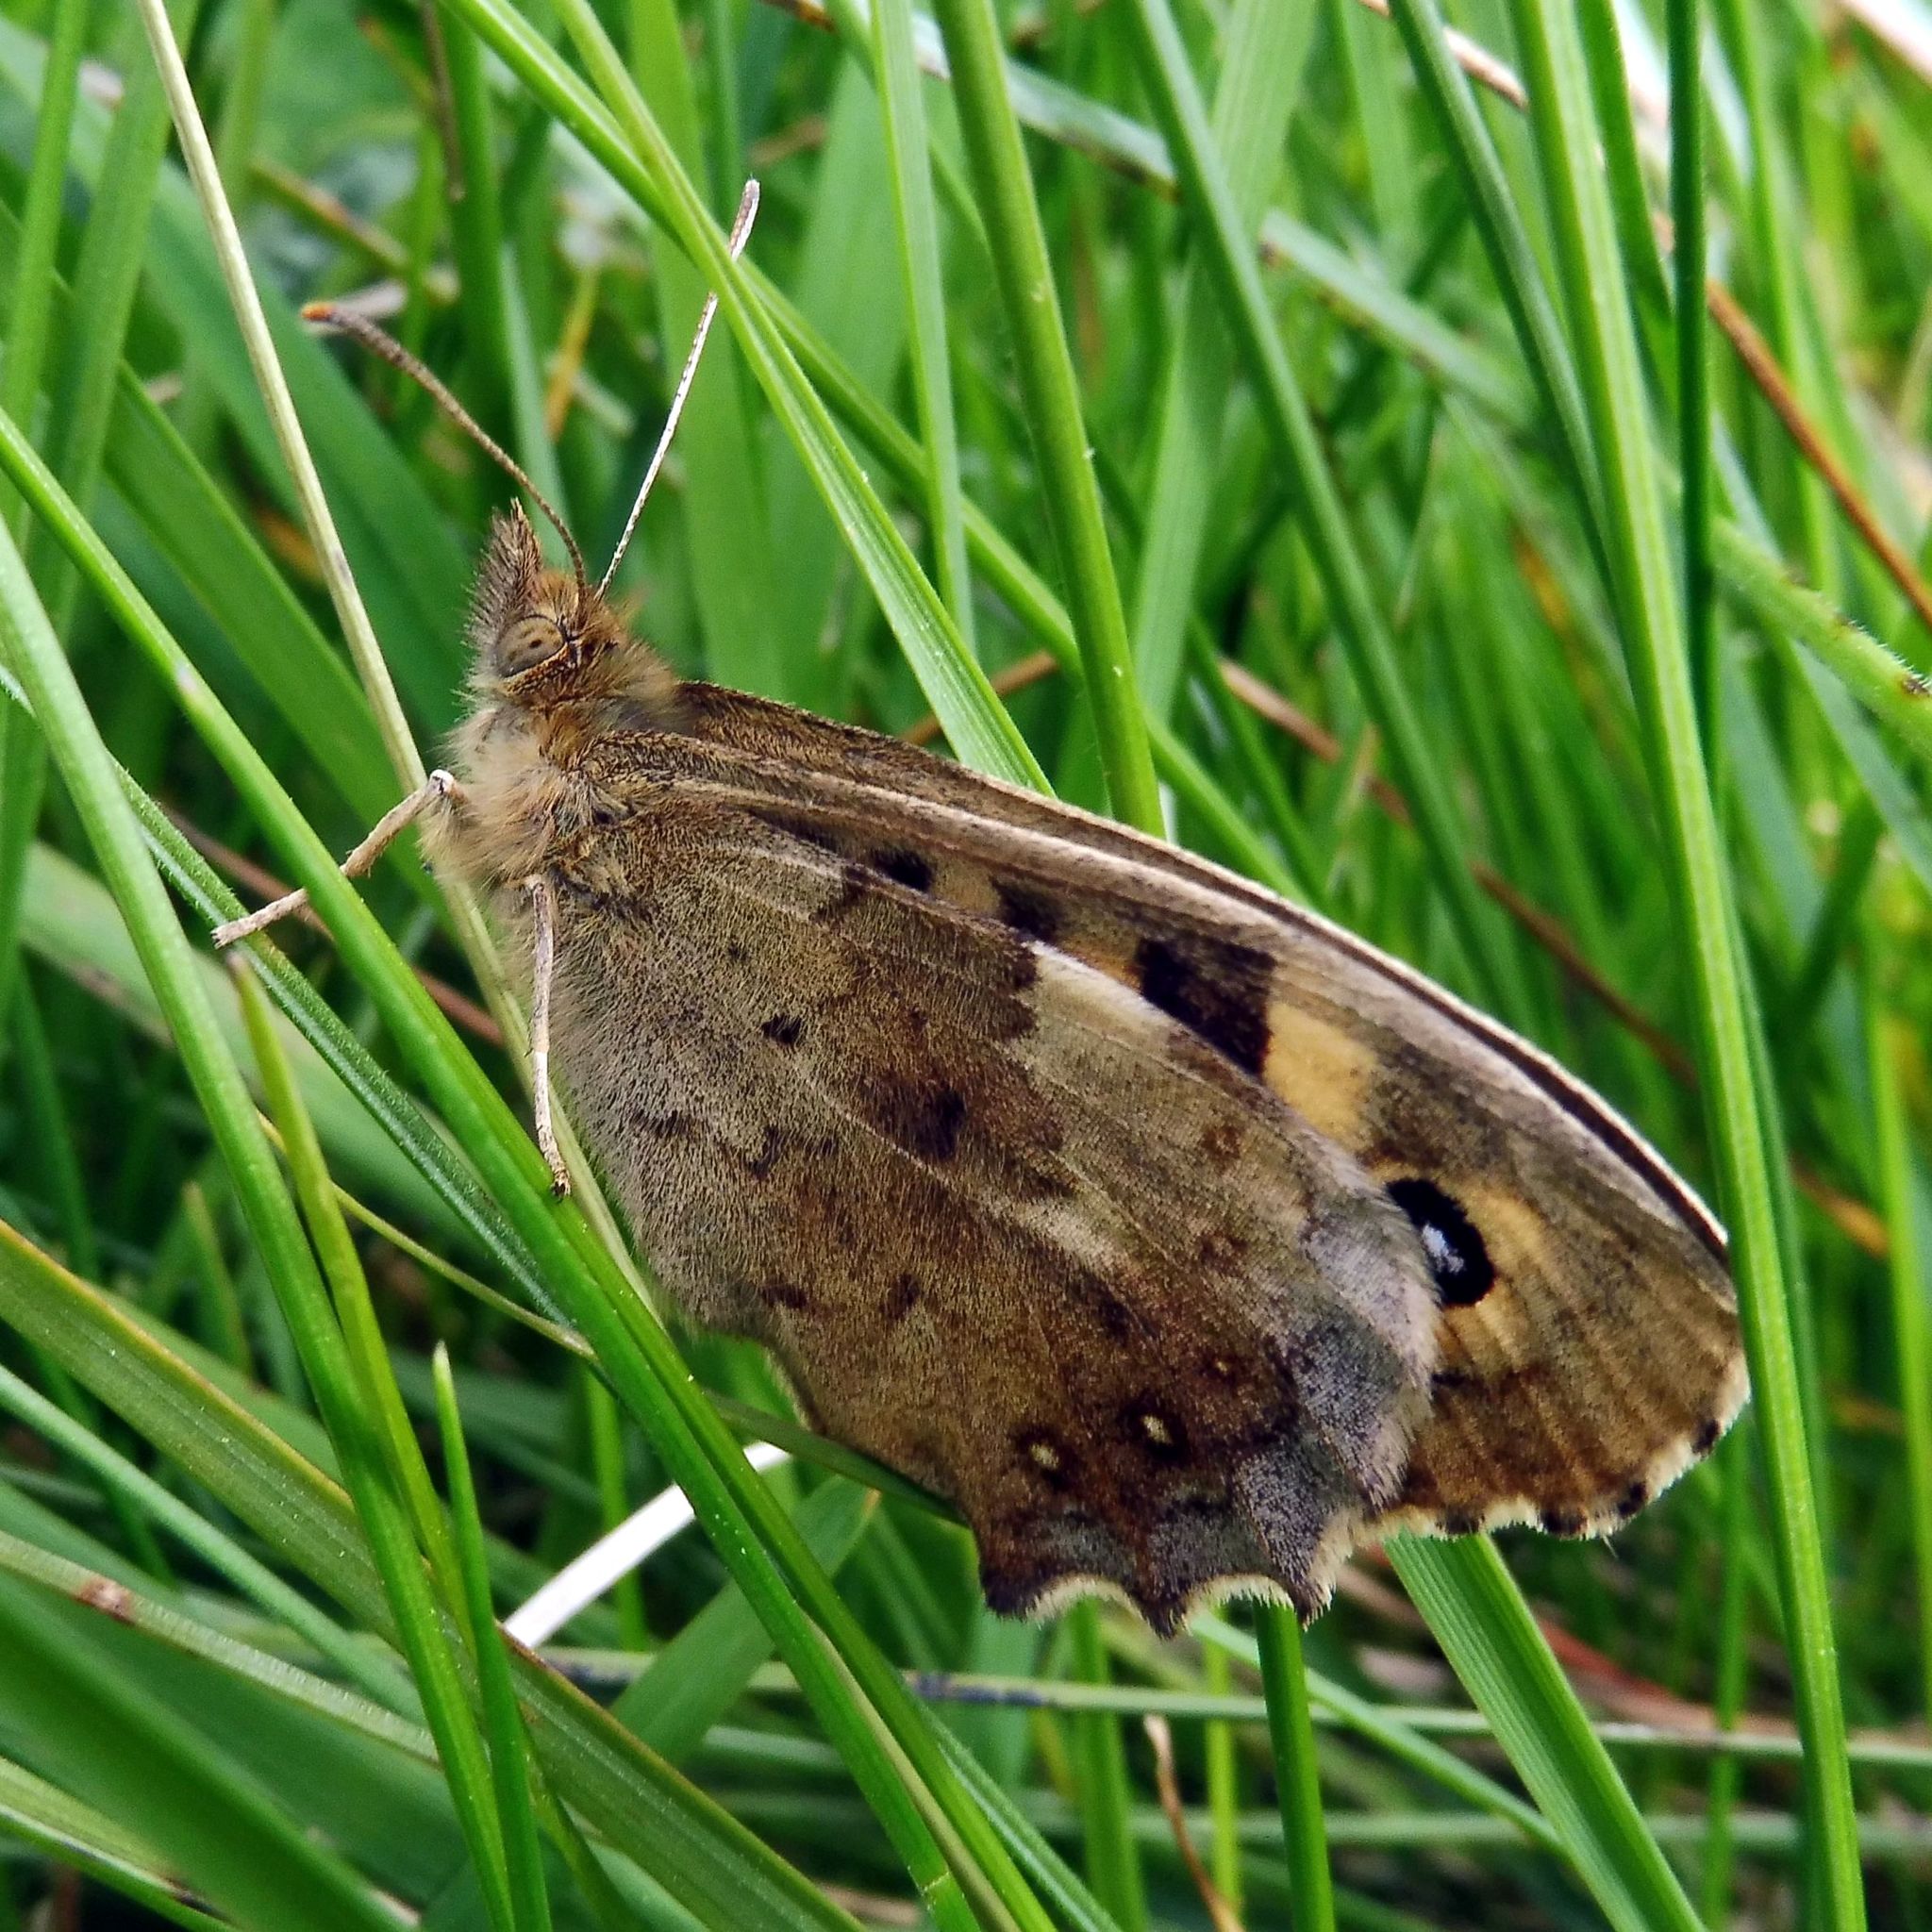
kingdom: Animalia
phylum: Arthropoda
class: Insecta
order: Lepidoptera
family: Nymphalidae
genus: Pararge
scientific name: Pararge aegeria
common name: Speckled wood
